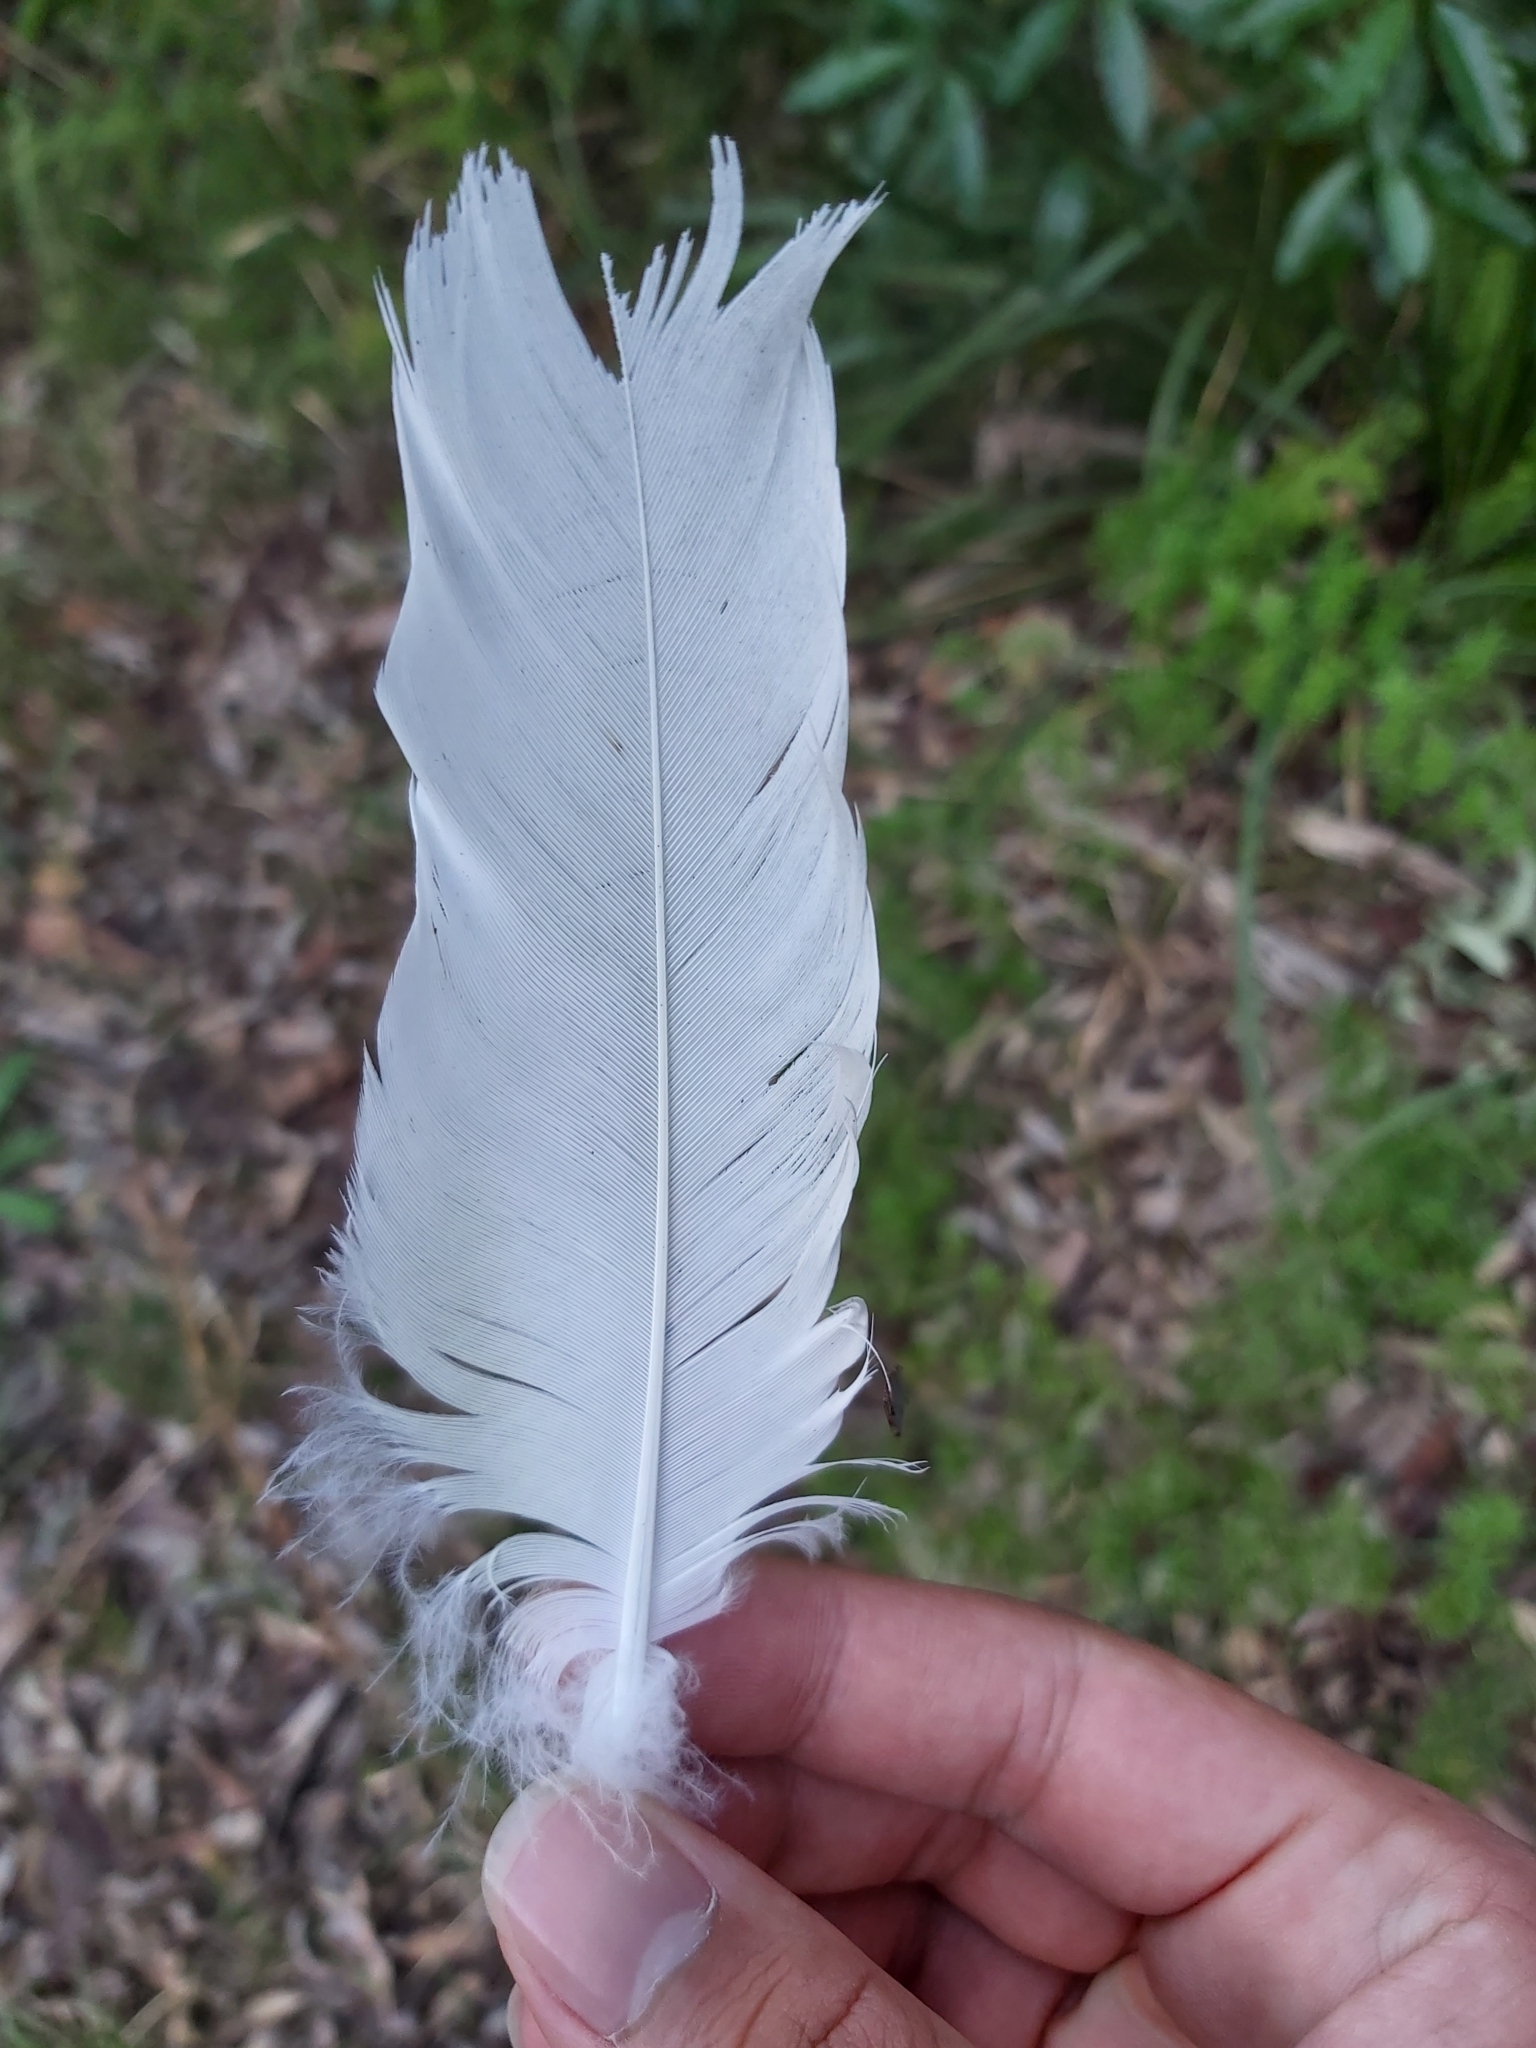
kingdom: Animalia
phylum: Chordata
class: Aves
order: Psittaciformes
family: Psittacidae
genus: Cacatua
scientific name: Cacatua galerita
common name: Sulphur-crested cockatoo
